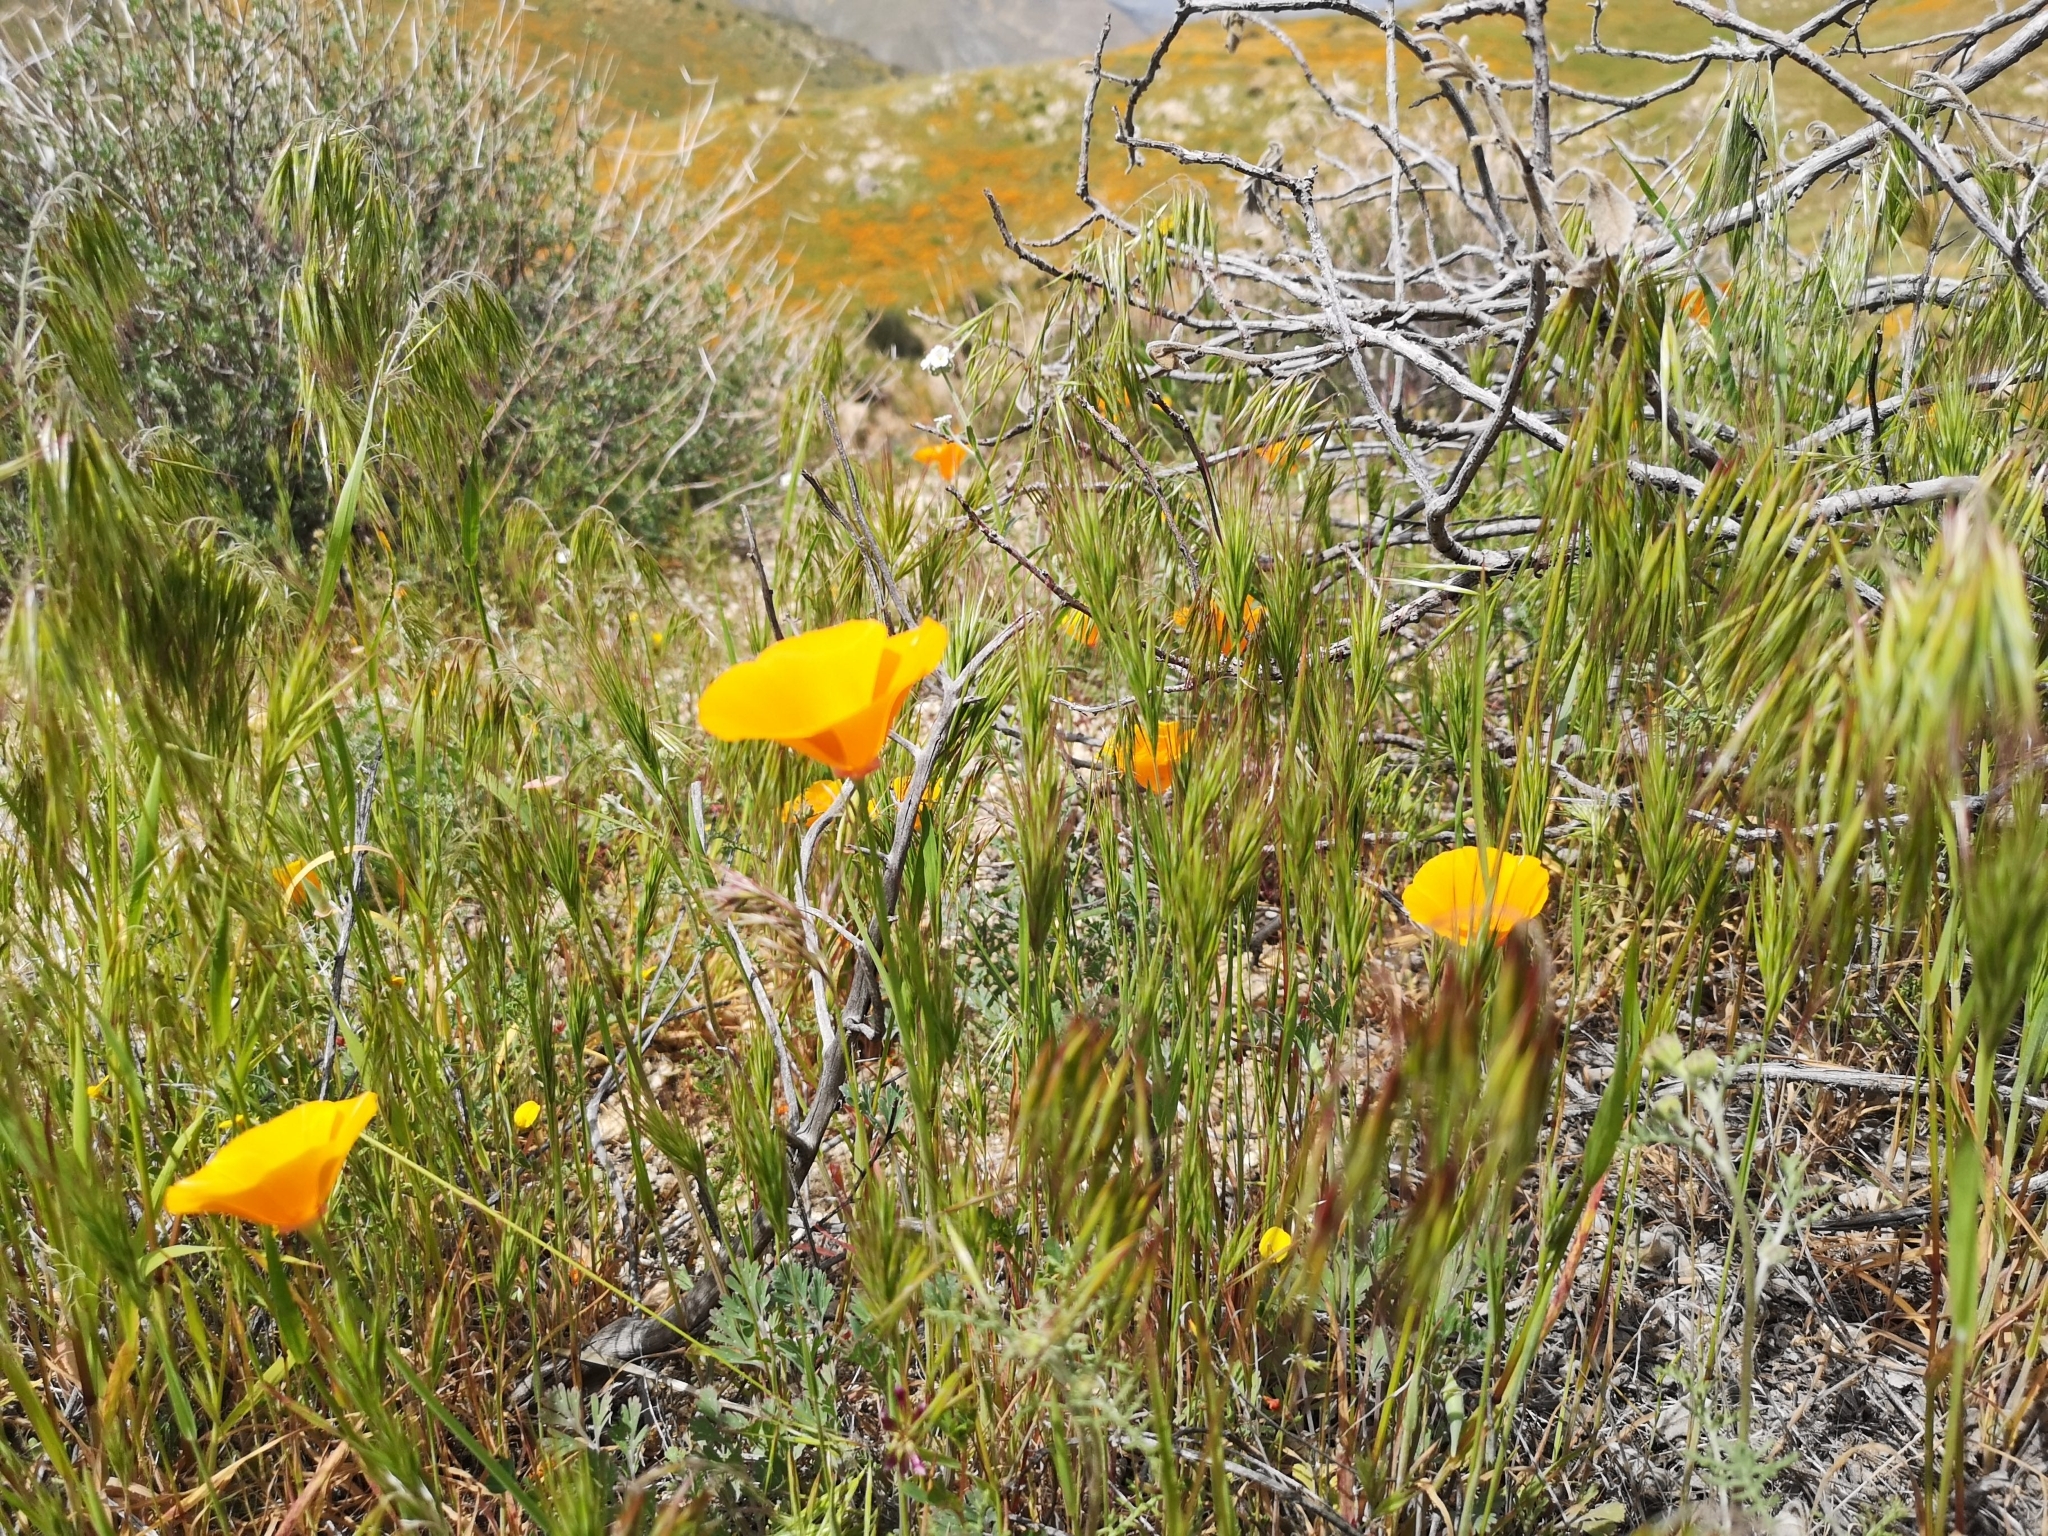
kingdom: Plantae
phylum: Tracheophyta
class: Magnoliopsida
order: Ranunculales
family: Papaveraceae
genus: Eschscholzia
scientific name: Eschscholzia californica
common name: California poppy
